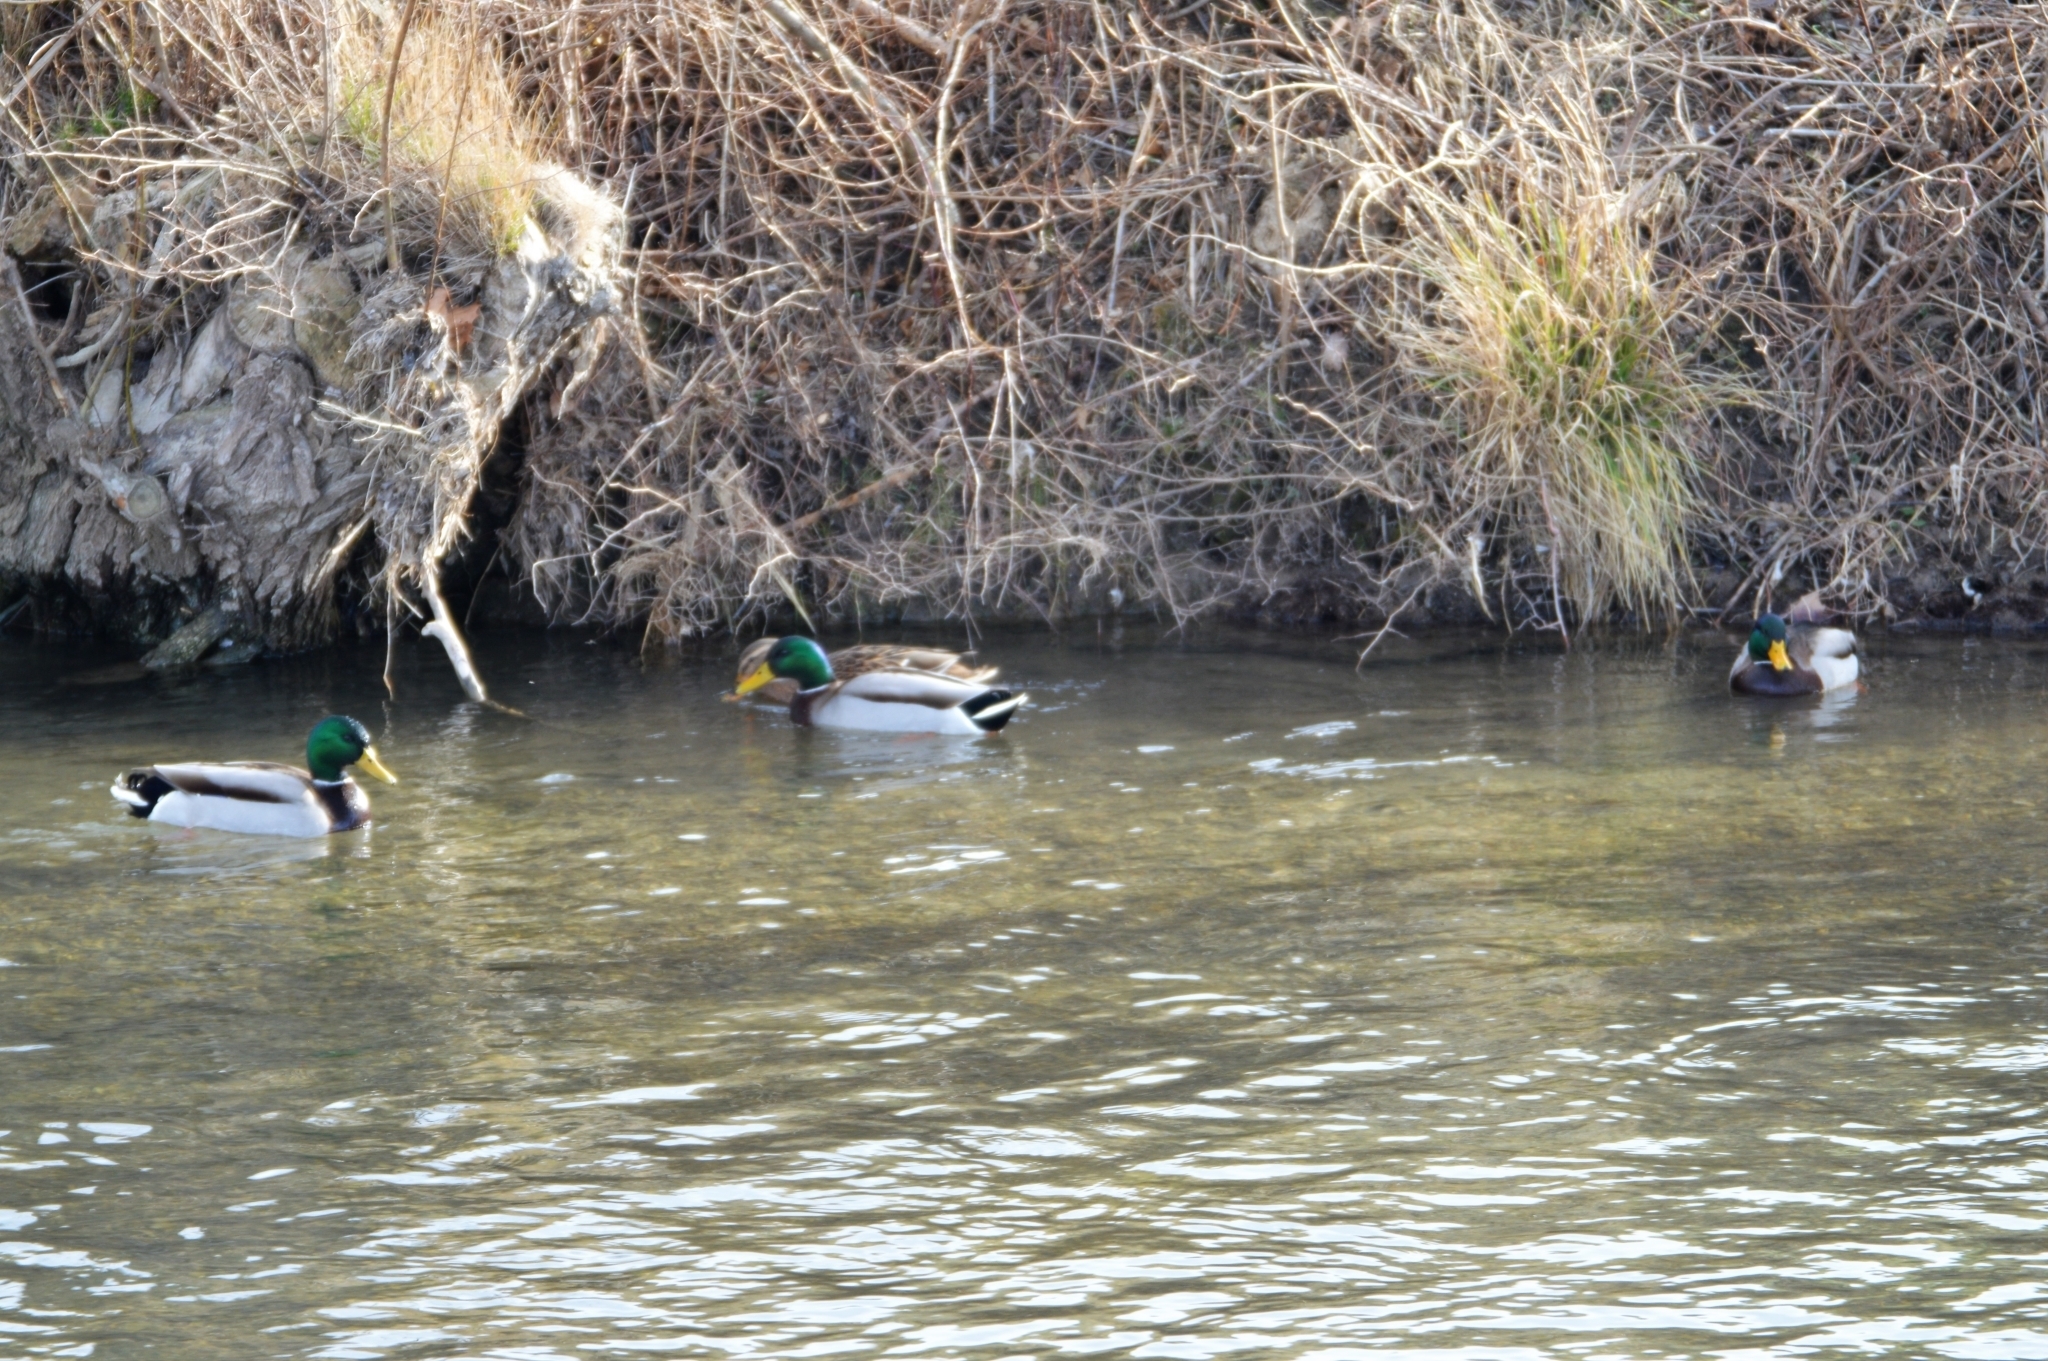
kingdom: Animalia
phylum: Chordata
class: Aves
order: Anseriformes
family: Anatidae
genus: Anas
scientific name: Anas platyrhynchos
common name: Mallard
